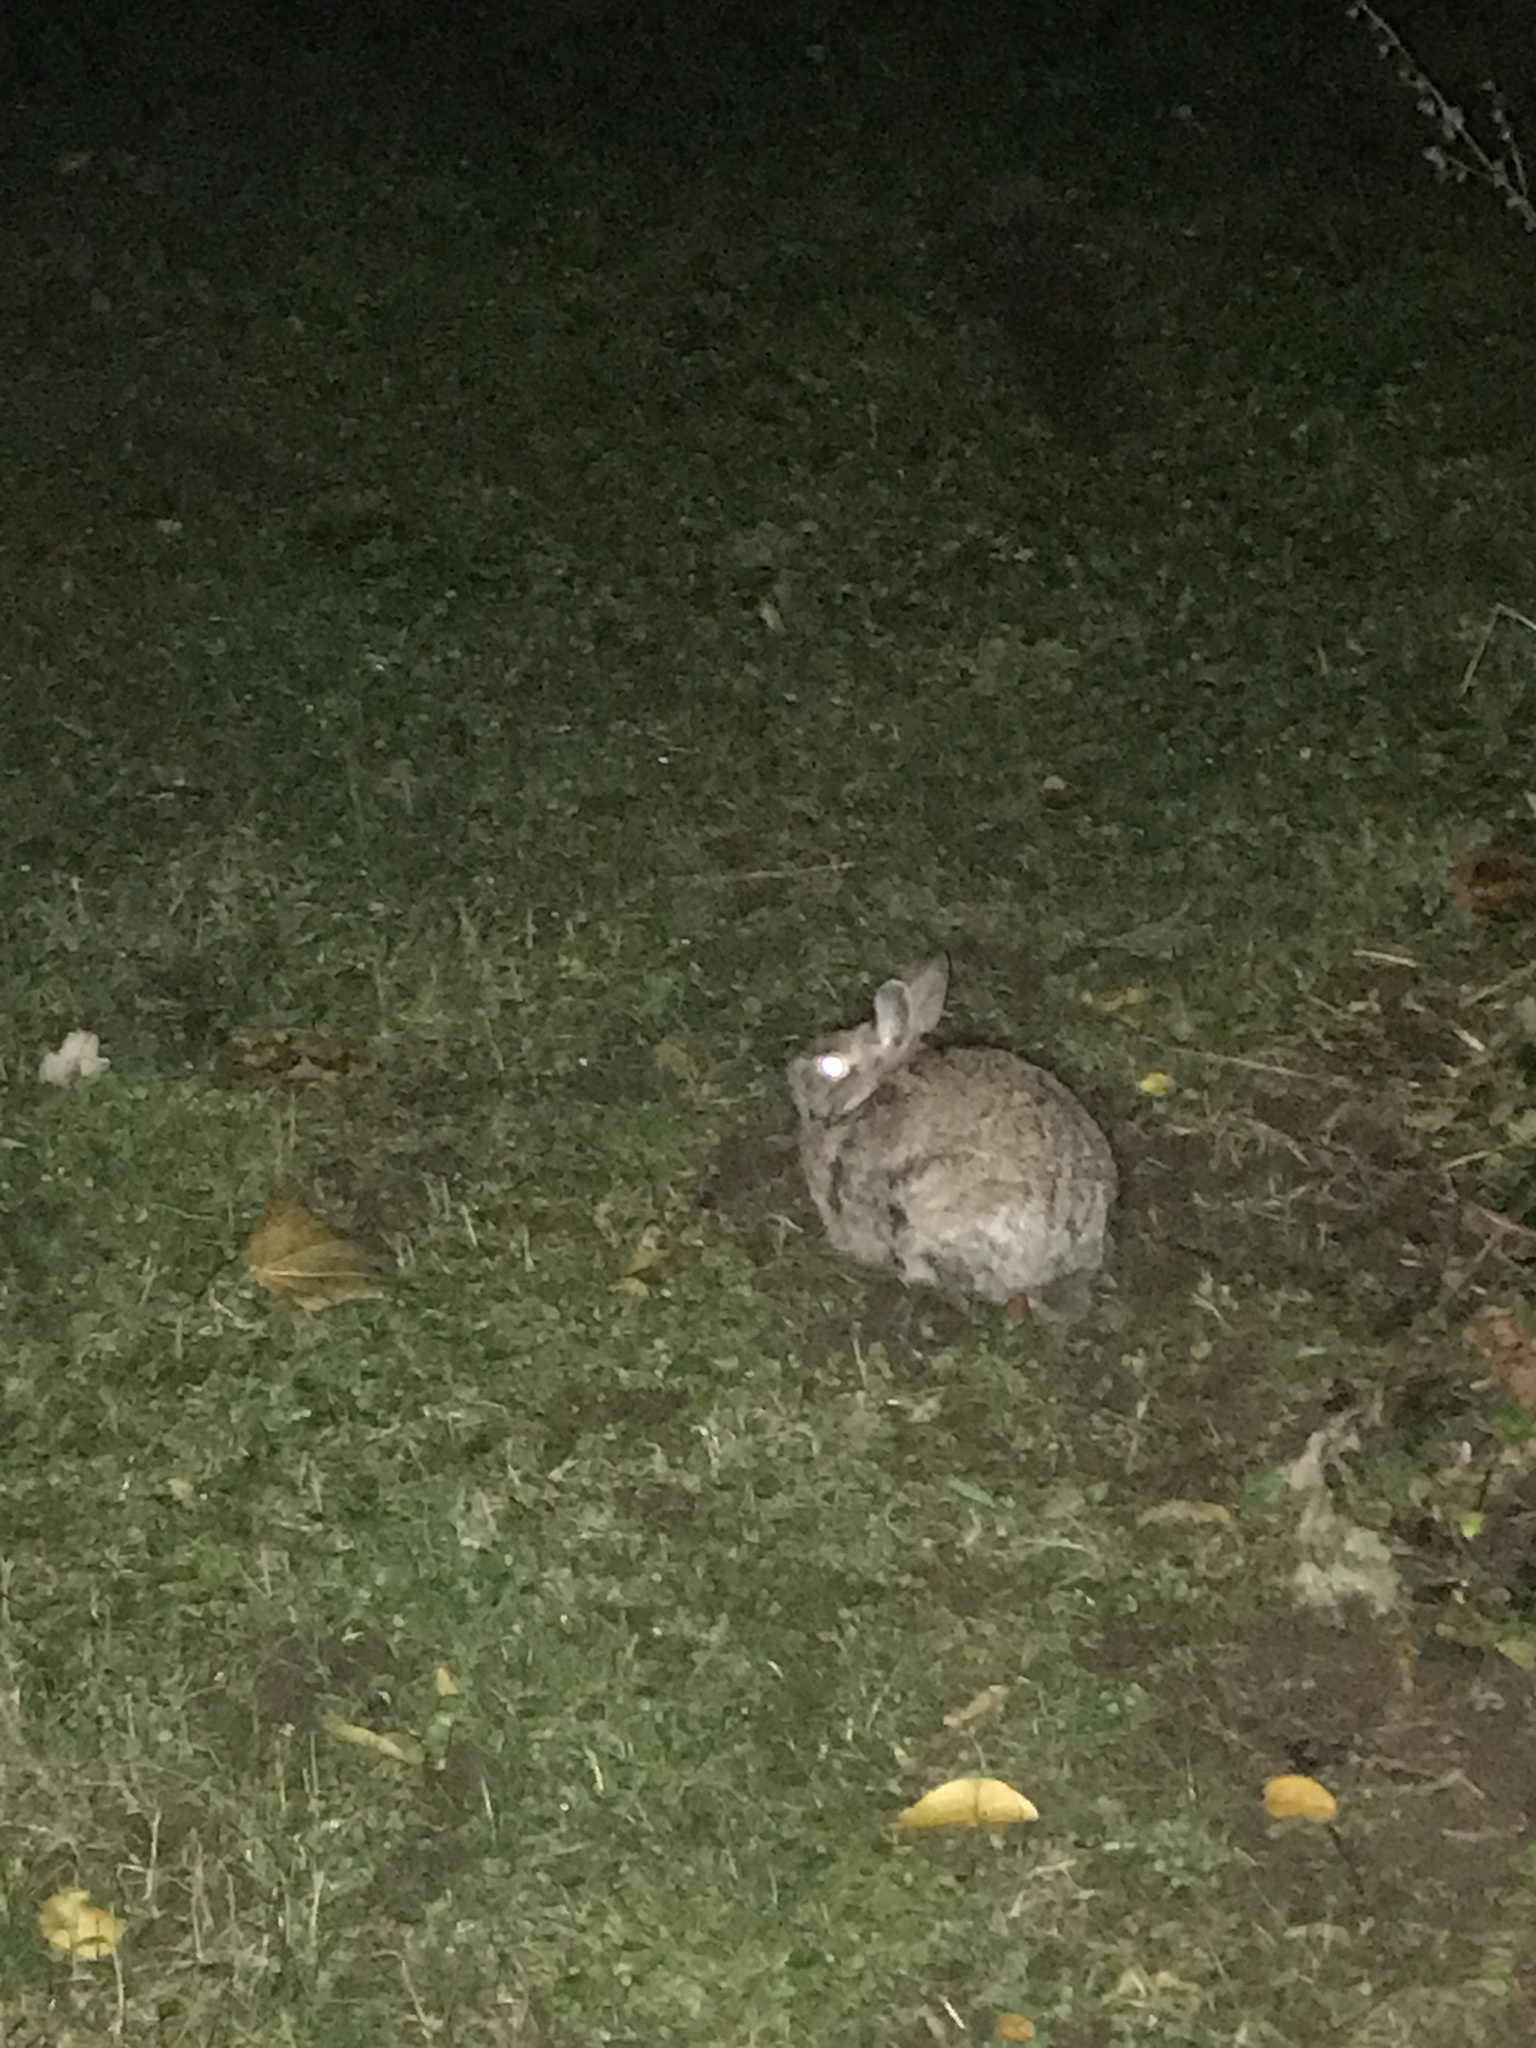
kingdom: Animalia
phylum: Chordata
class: Mammalia
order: Lagomorpha
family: Leporidae
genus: Sylvilagus
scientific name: Sylvilagus floridanus
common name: Eastern cottontail
